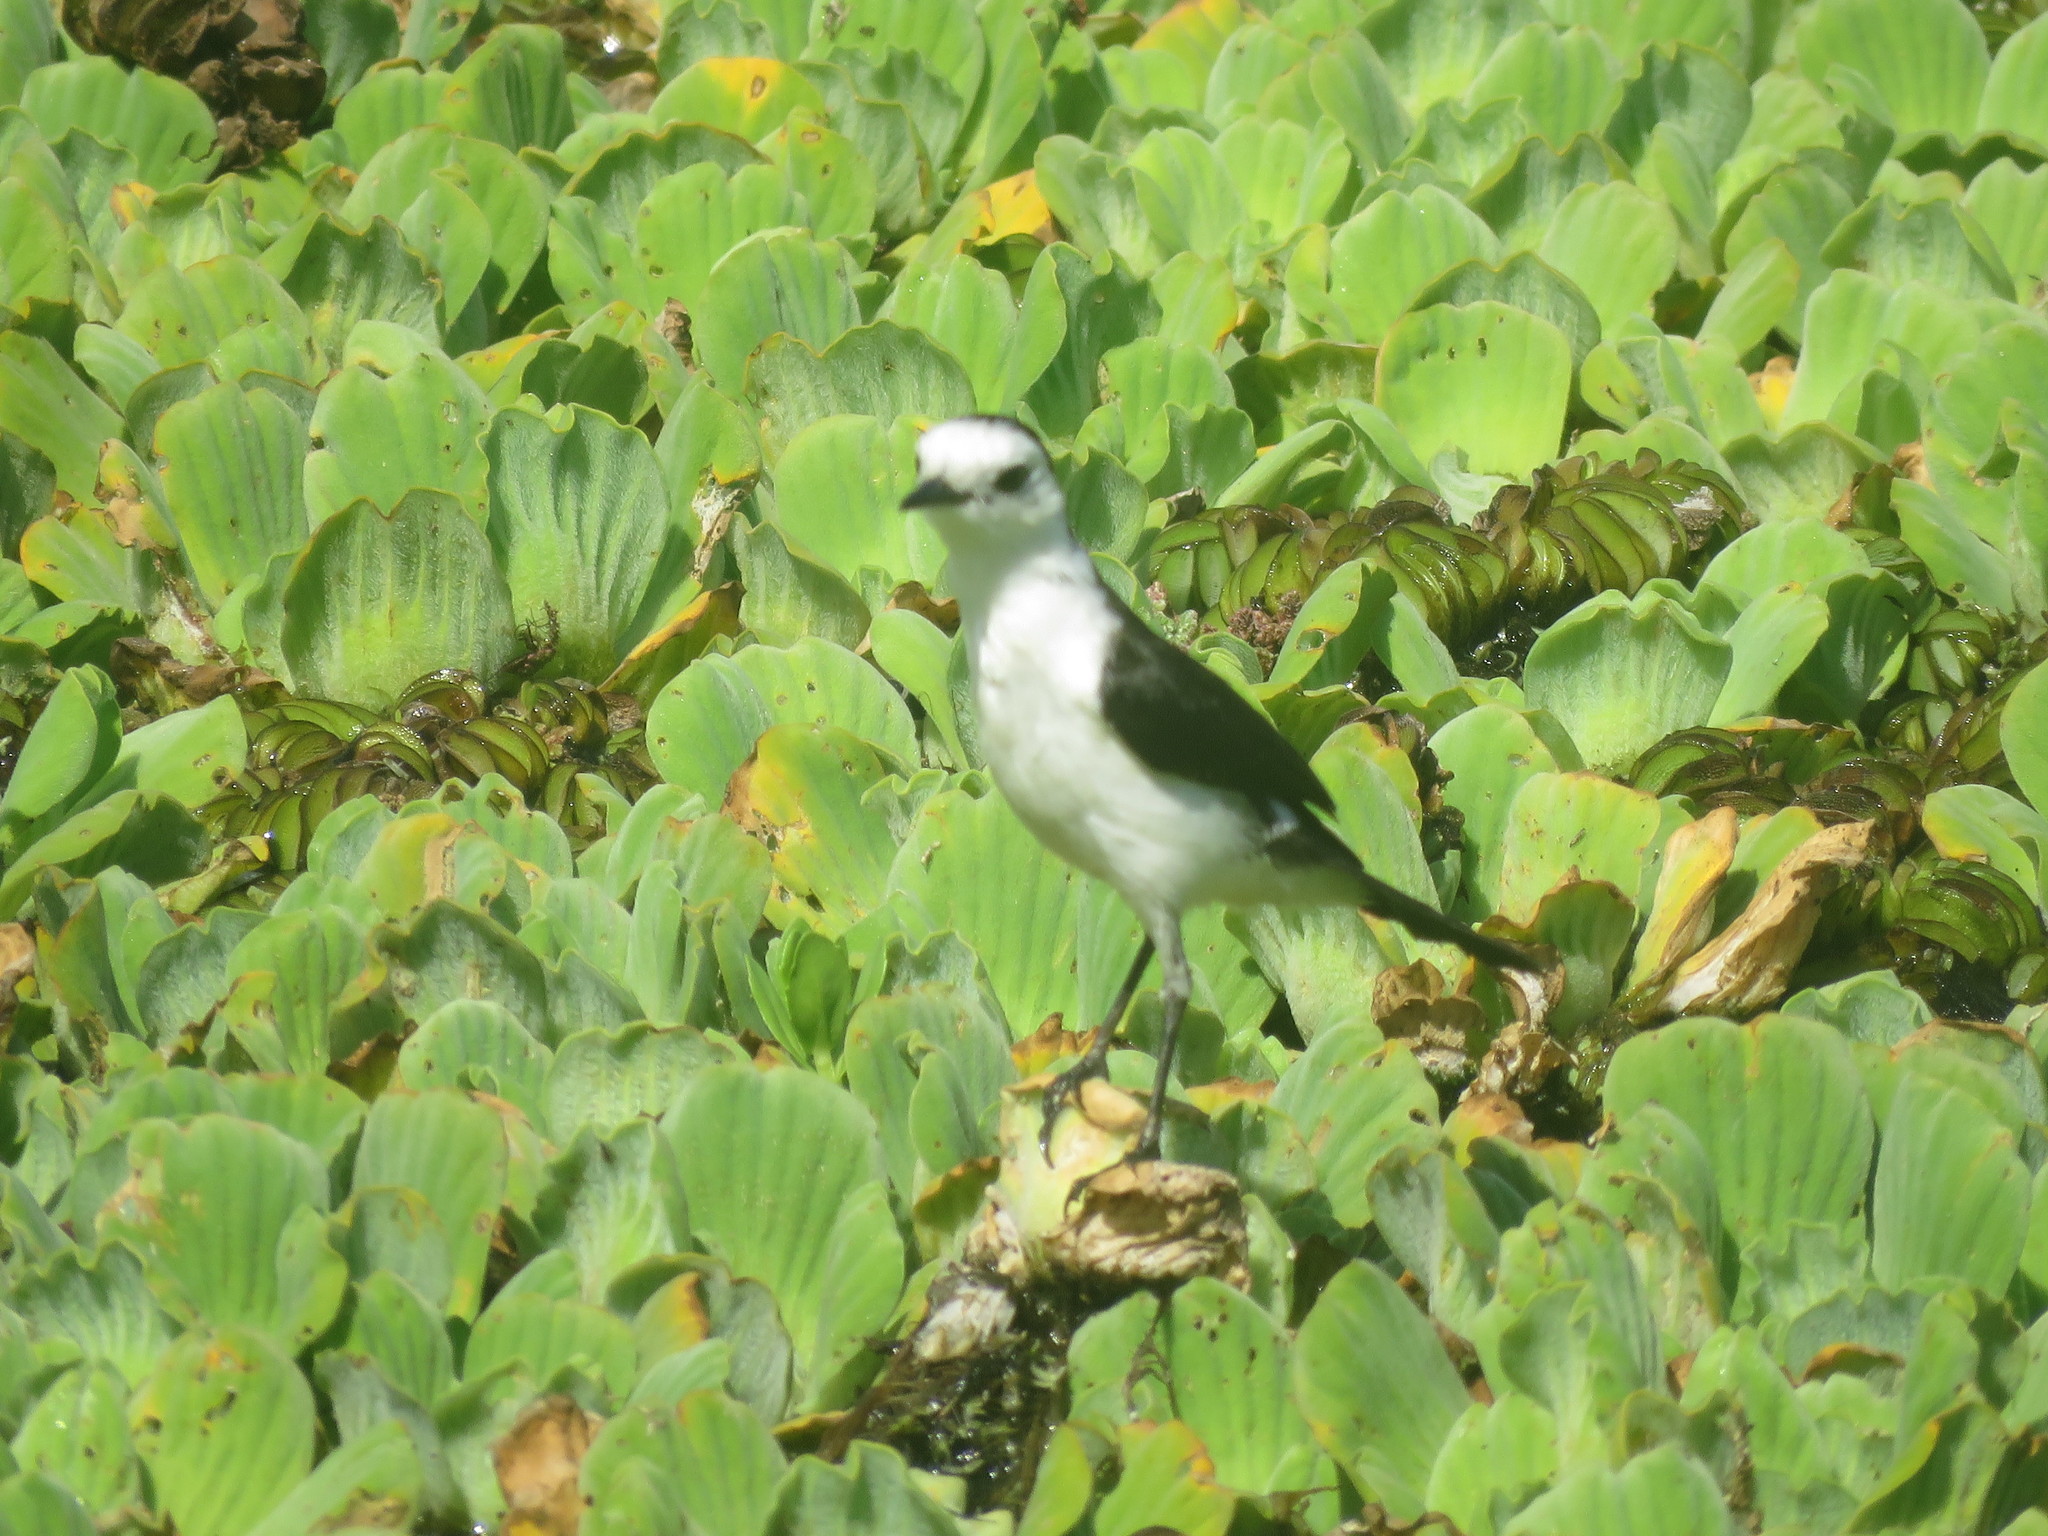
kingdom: Animalia
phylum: Chordata
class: Aves
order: Passeriformes
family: Tyrannidae
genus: Fluvicola
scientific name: Fluvicola pica
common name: Pied water-tyrant
